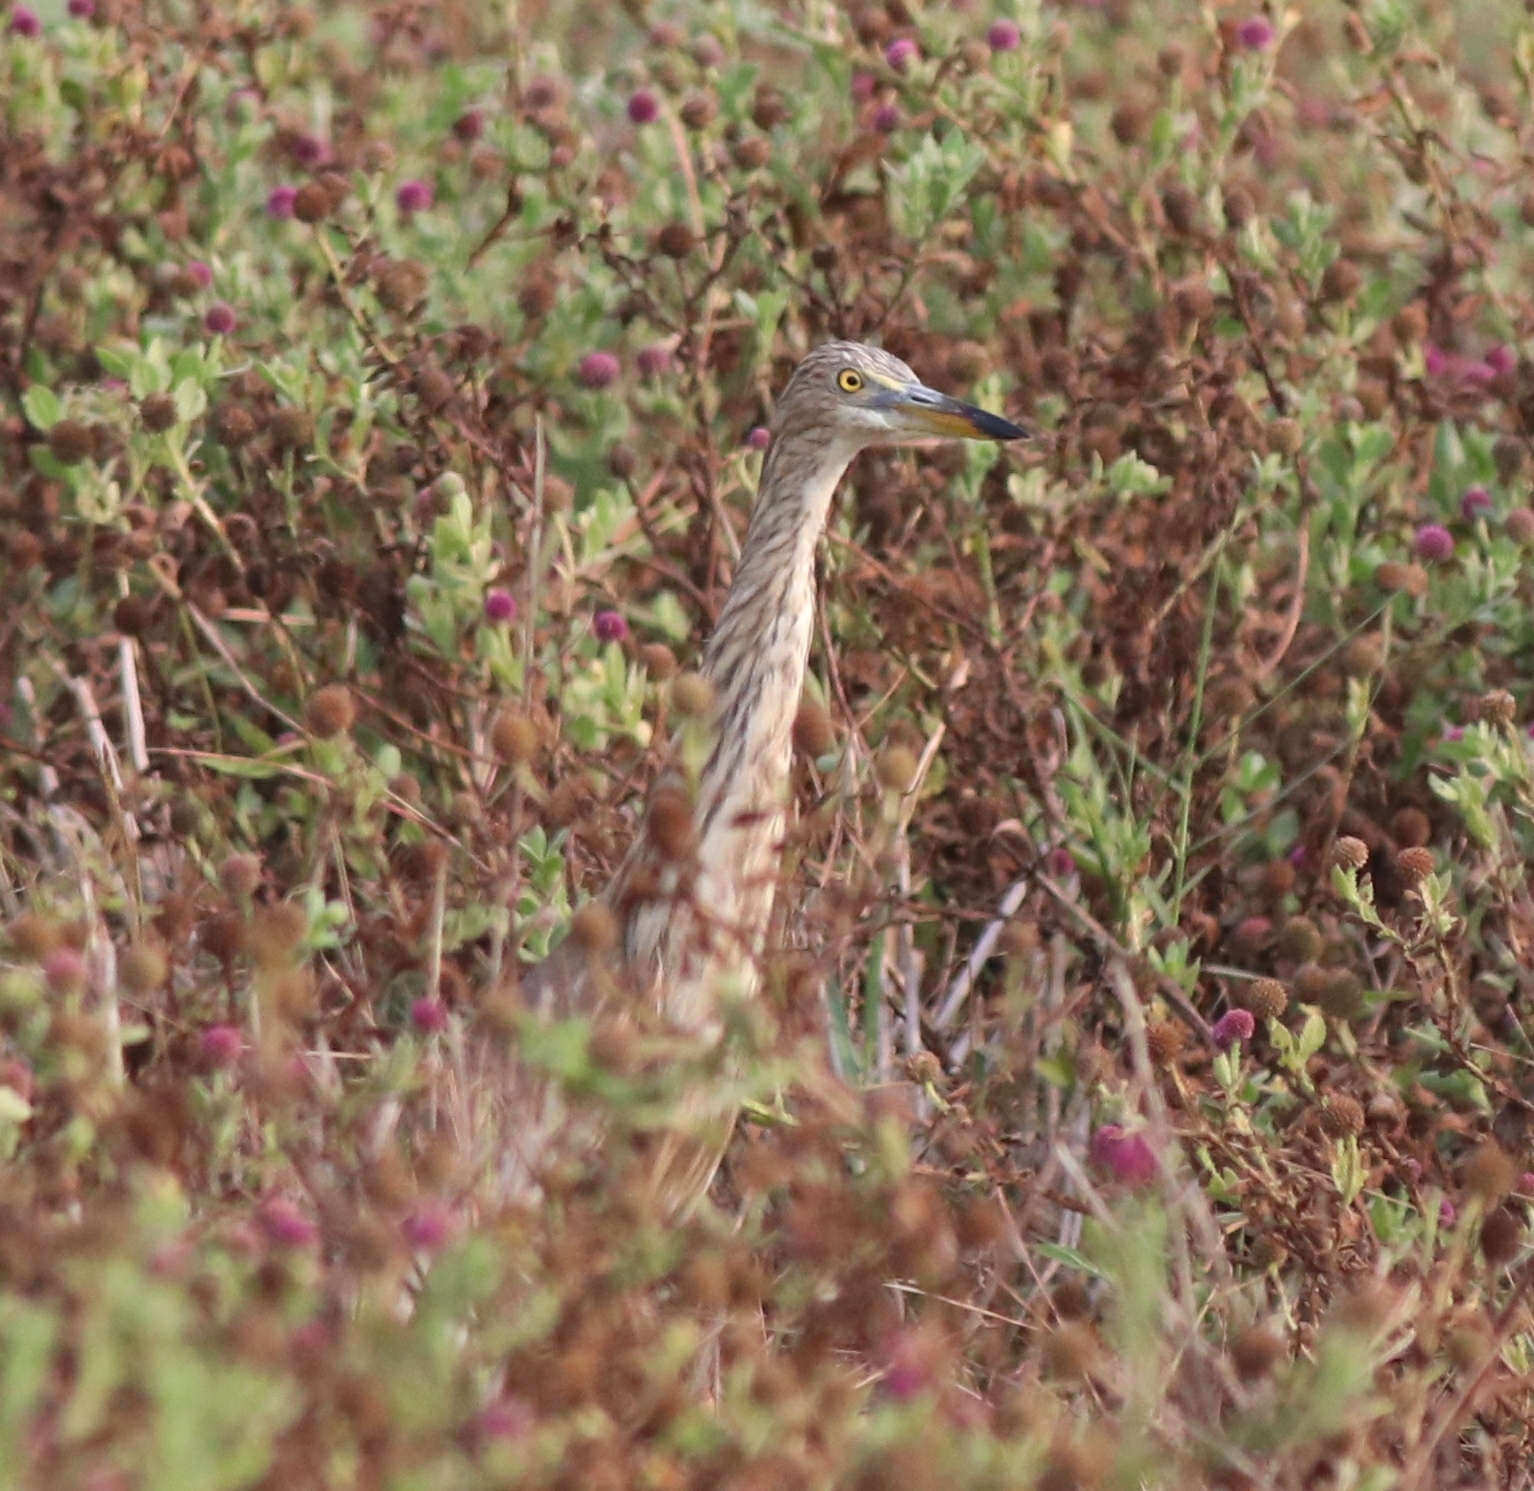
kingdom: Animalia
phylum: Chordata
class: Aves
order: Pelecaniformes
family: Ardeidae
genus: Ardeola
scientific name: Ardeola grayii
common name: Indian pond heron
